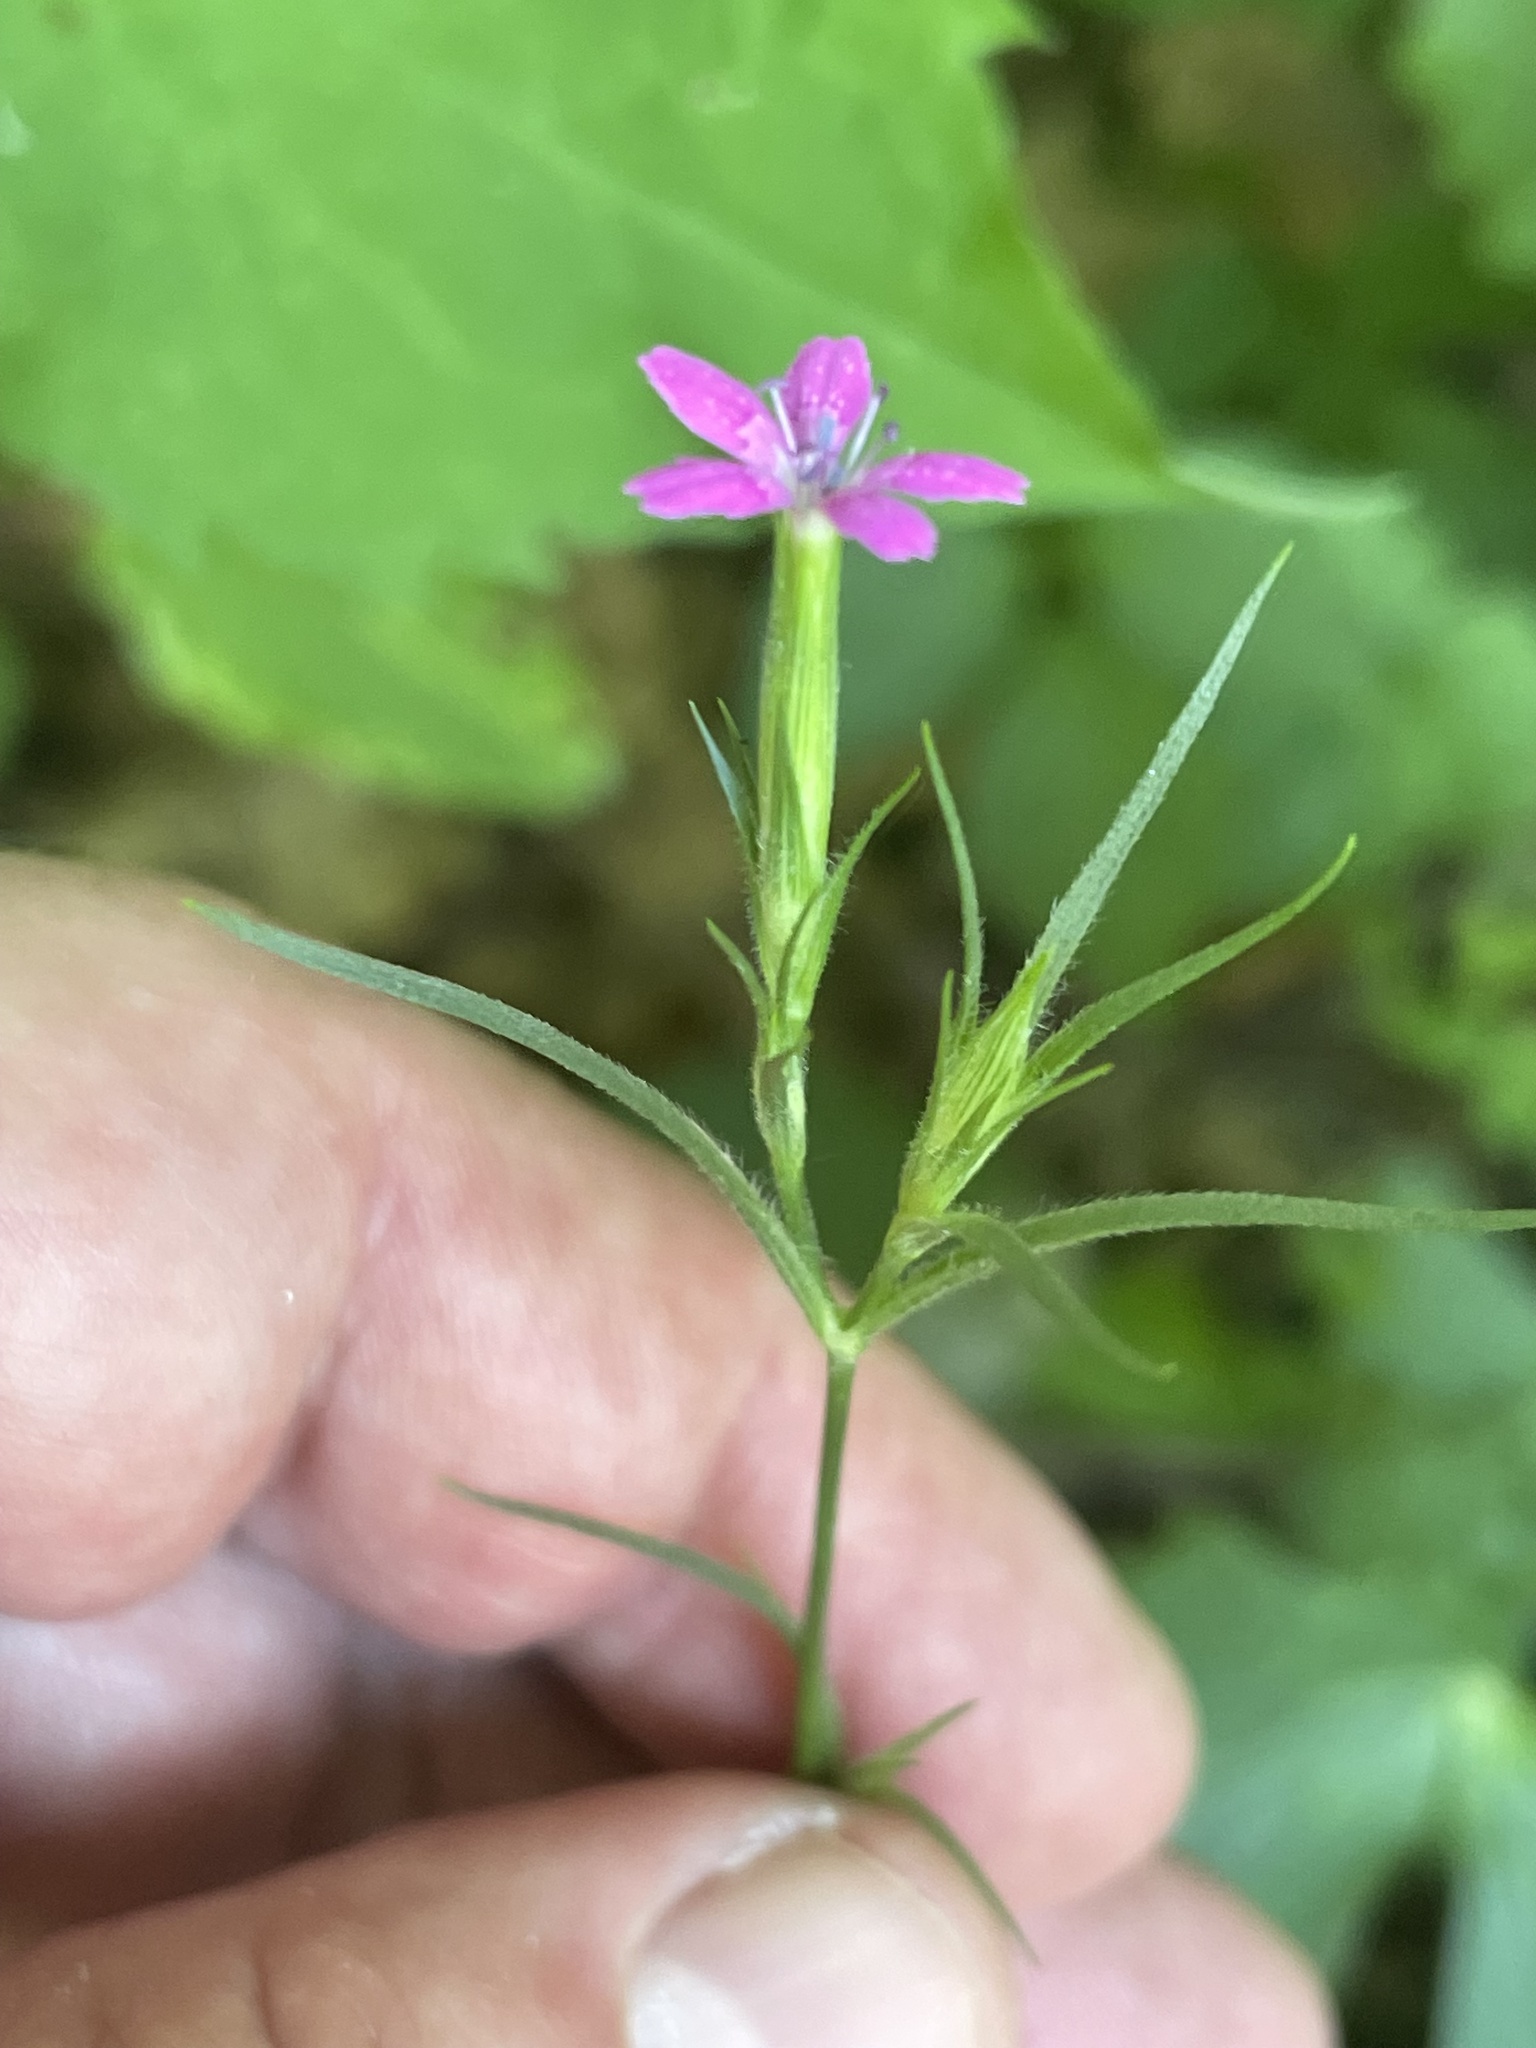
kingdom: Plantae
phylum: Tracheophyta
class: Magnoliopsida
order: Caryophyllales
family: Caryophyllaceae
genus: Dianthus
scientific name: Dianthus armeria
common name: Deptford pink
